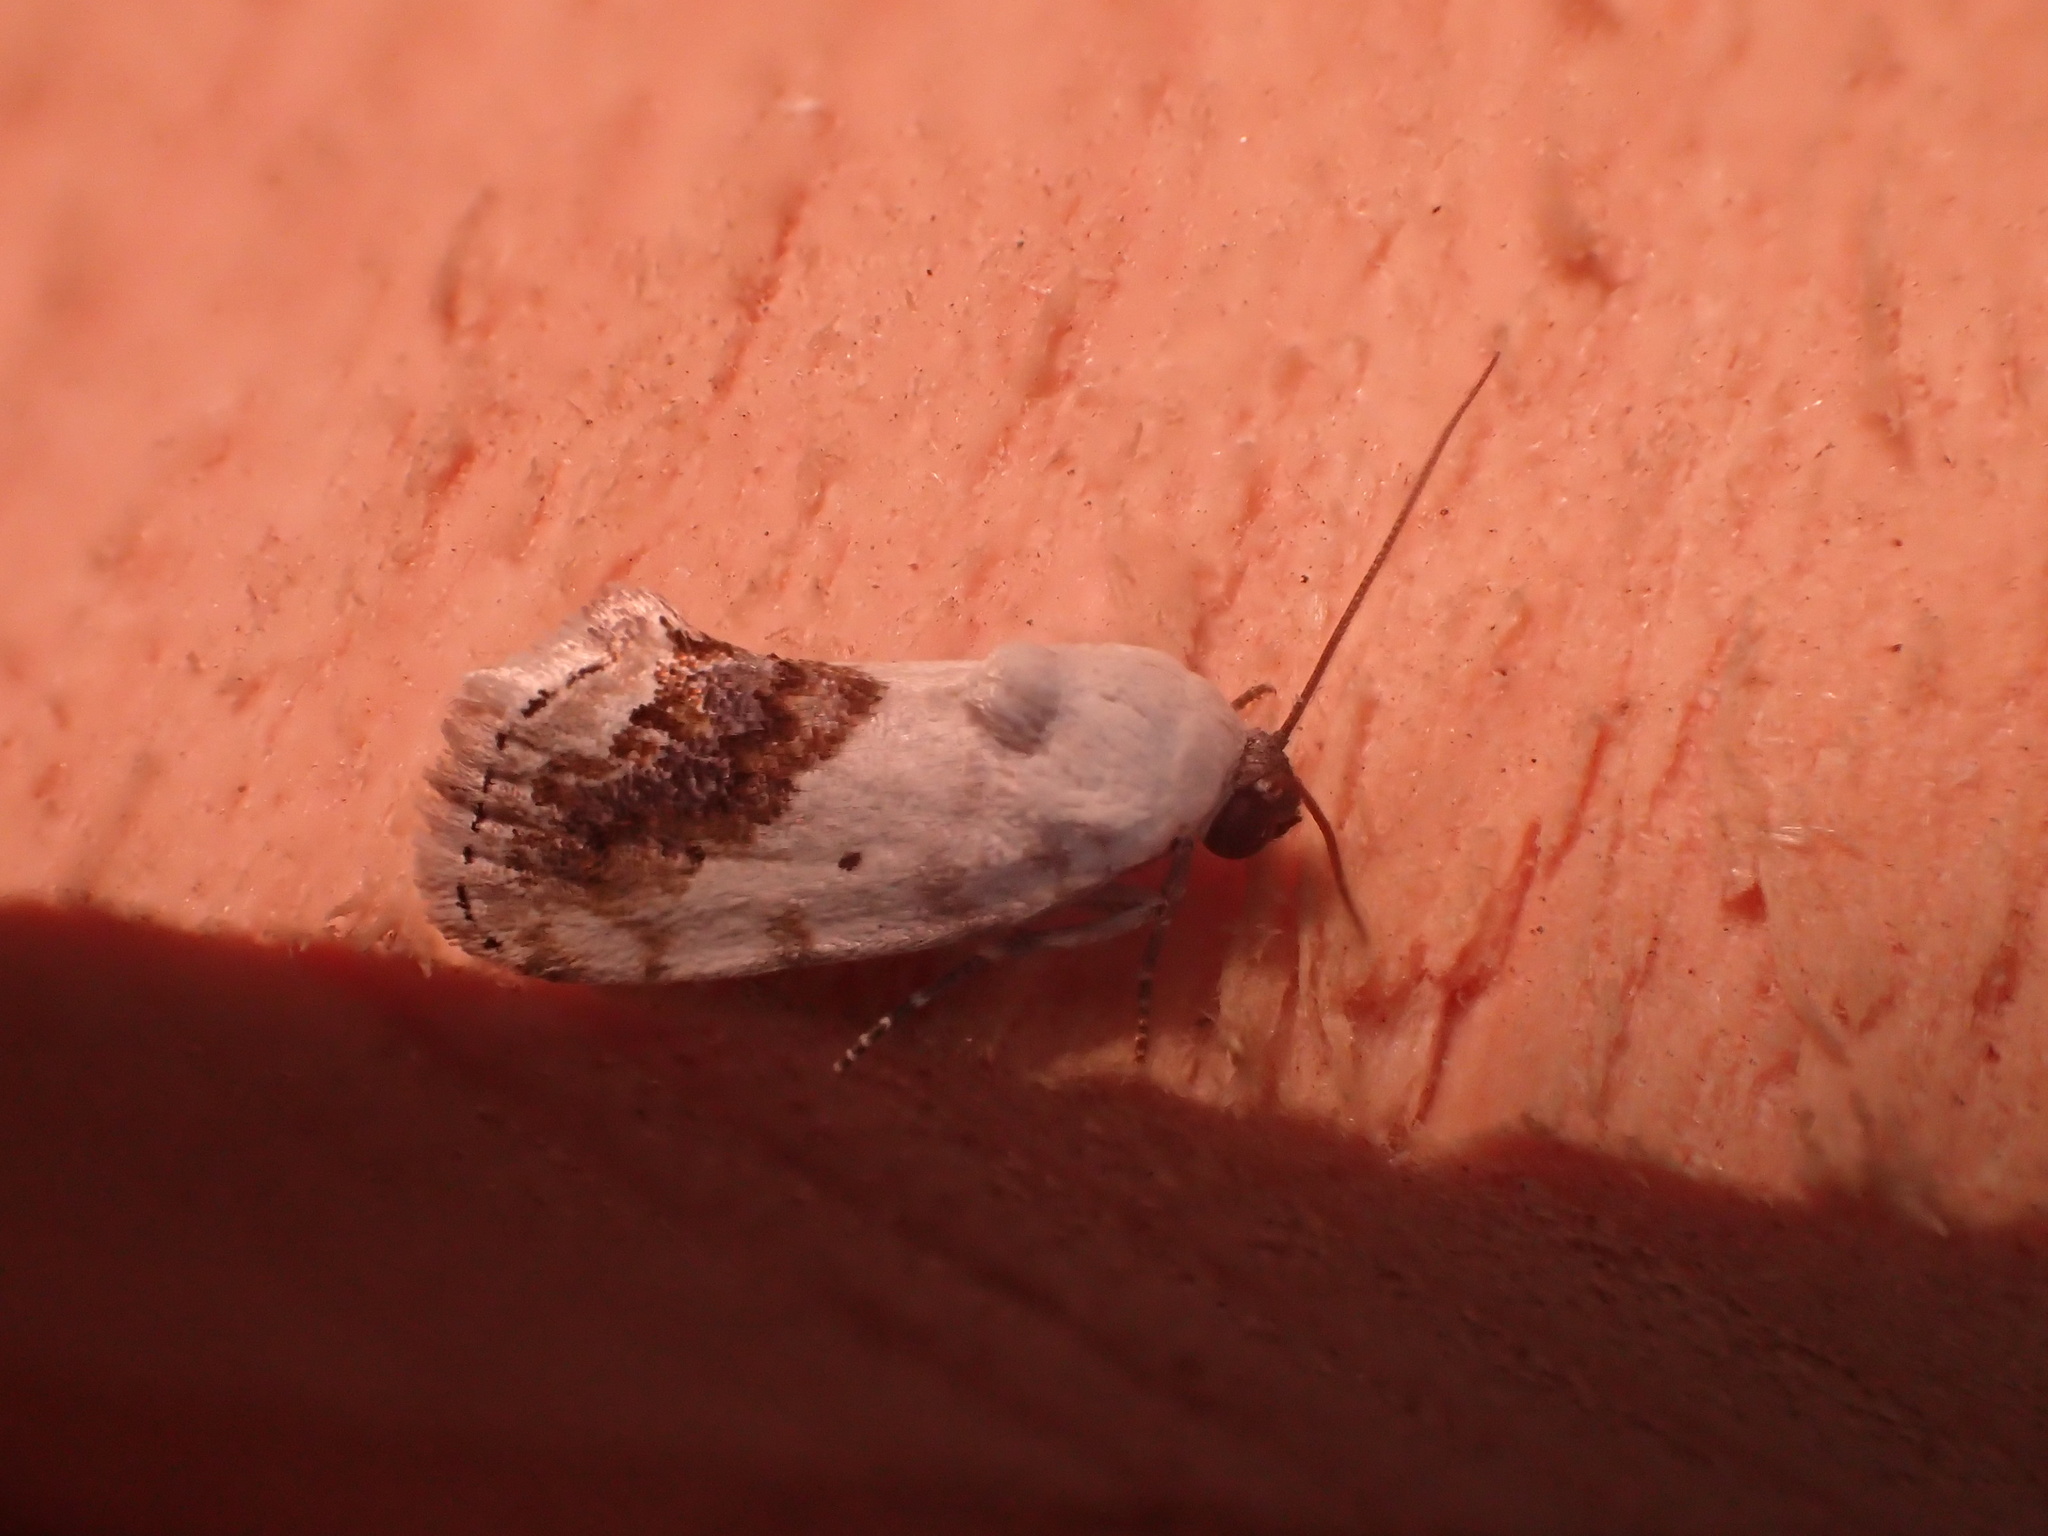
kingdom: Animalia
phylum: Arthropoda
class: Insecta
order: Lepidoptera
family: Noctuidae
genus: Acontia
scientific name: Acontia erastrioides
